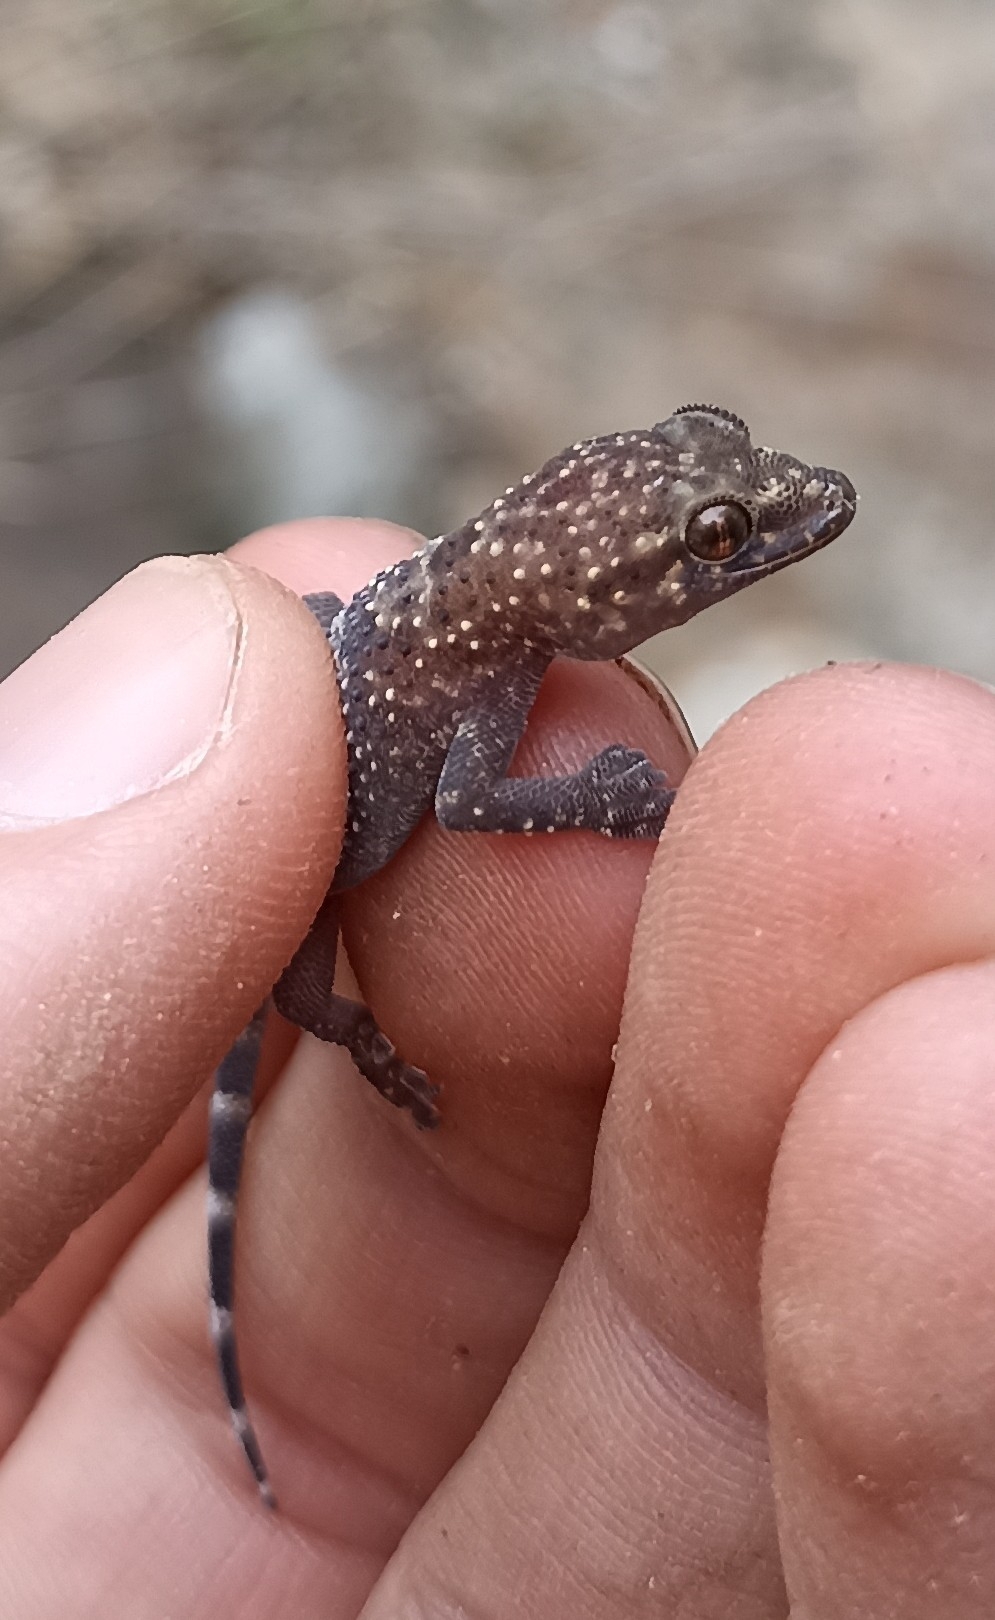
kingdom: Animalia
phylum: Chordata
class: Squamata
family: Gekkonidae
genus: Hemidactylus
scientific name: Hemidactylus turcicus
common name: Turkish gecko
